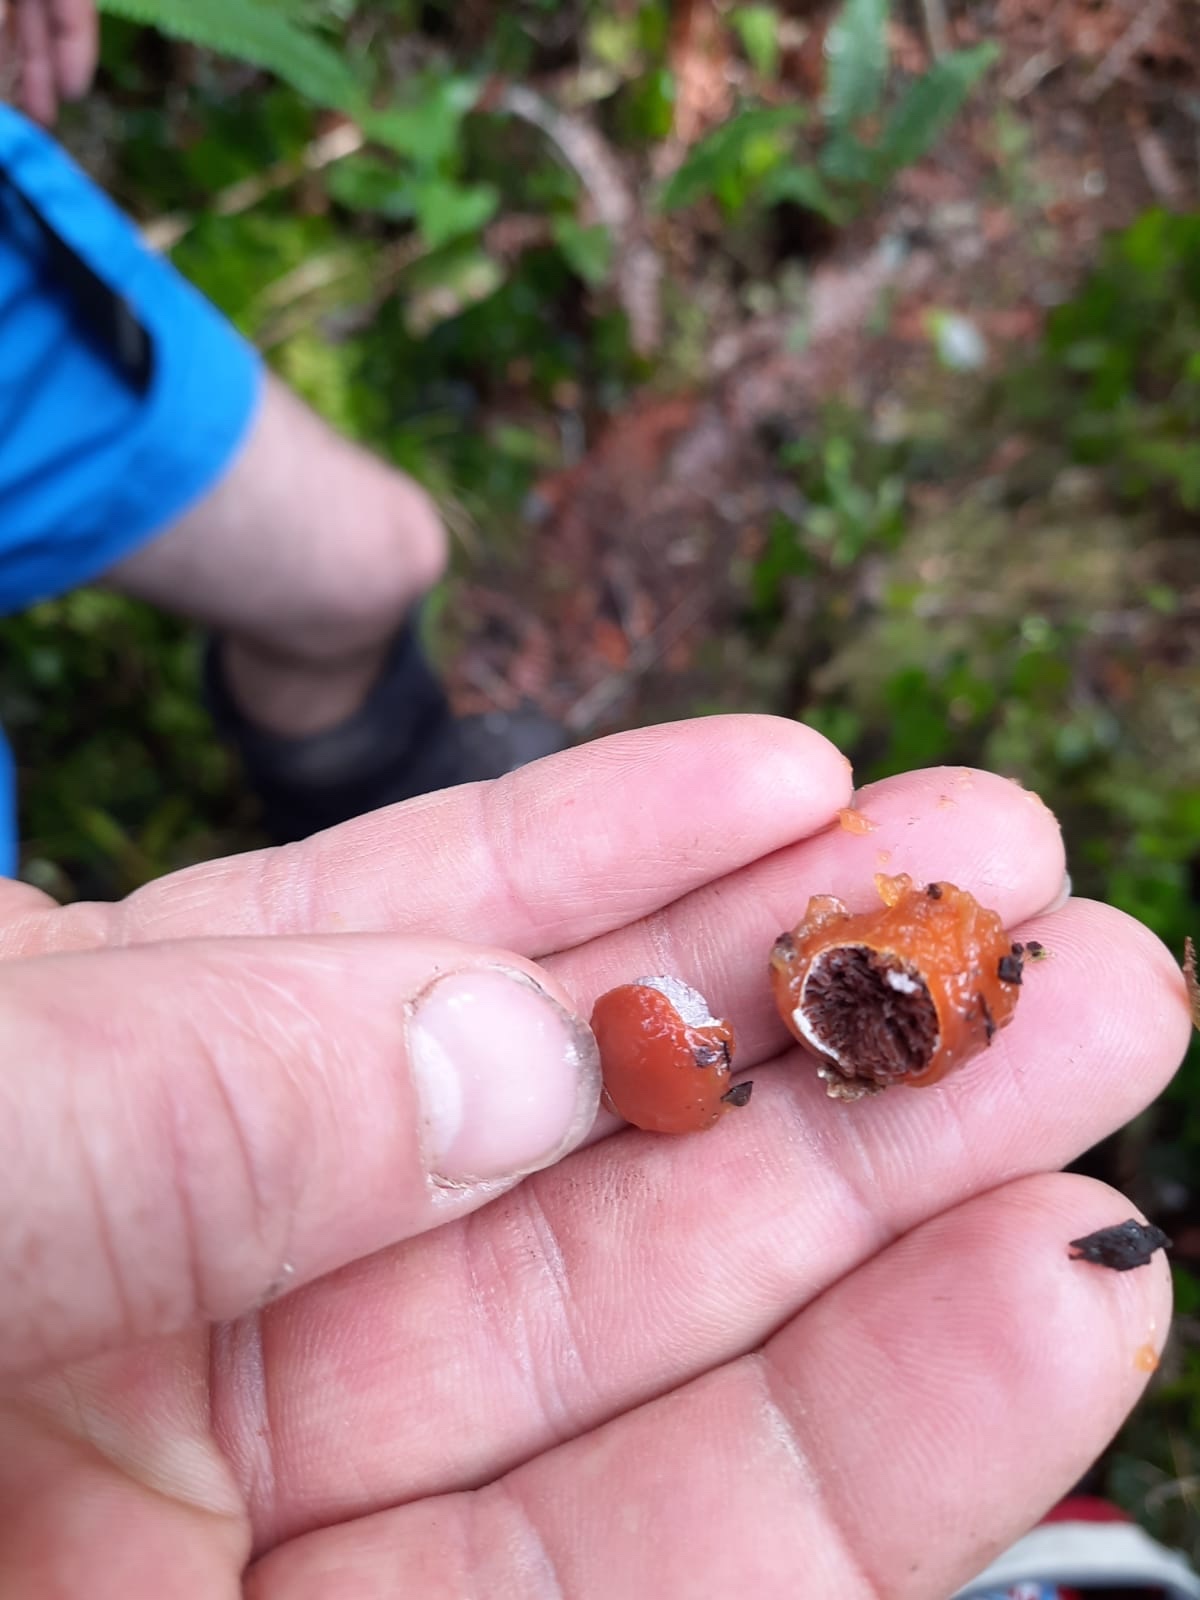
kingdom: Fungi
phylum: Basidiomycota
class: Agaricomycetes
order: Agaricales
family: Cortinariaceae
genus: Cortinarius
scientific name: Cortinarius beeverorum
